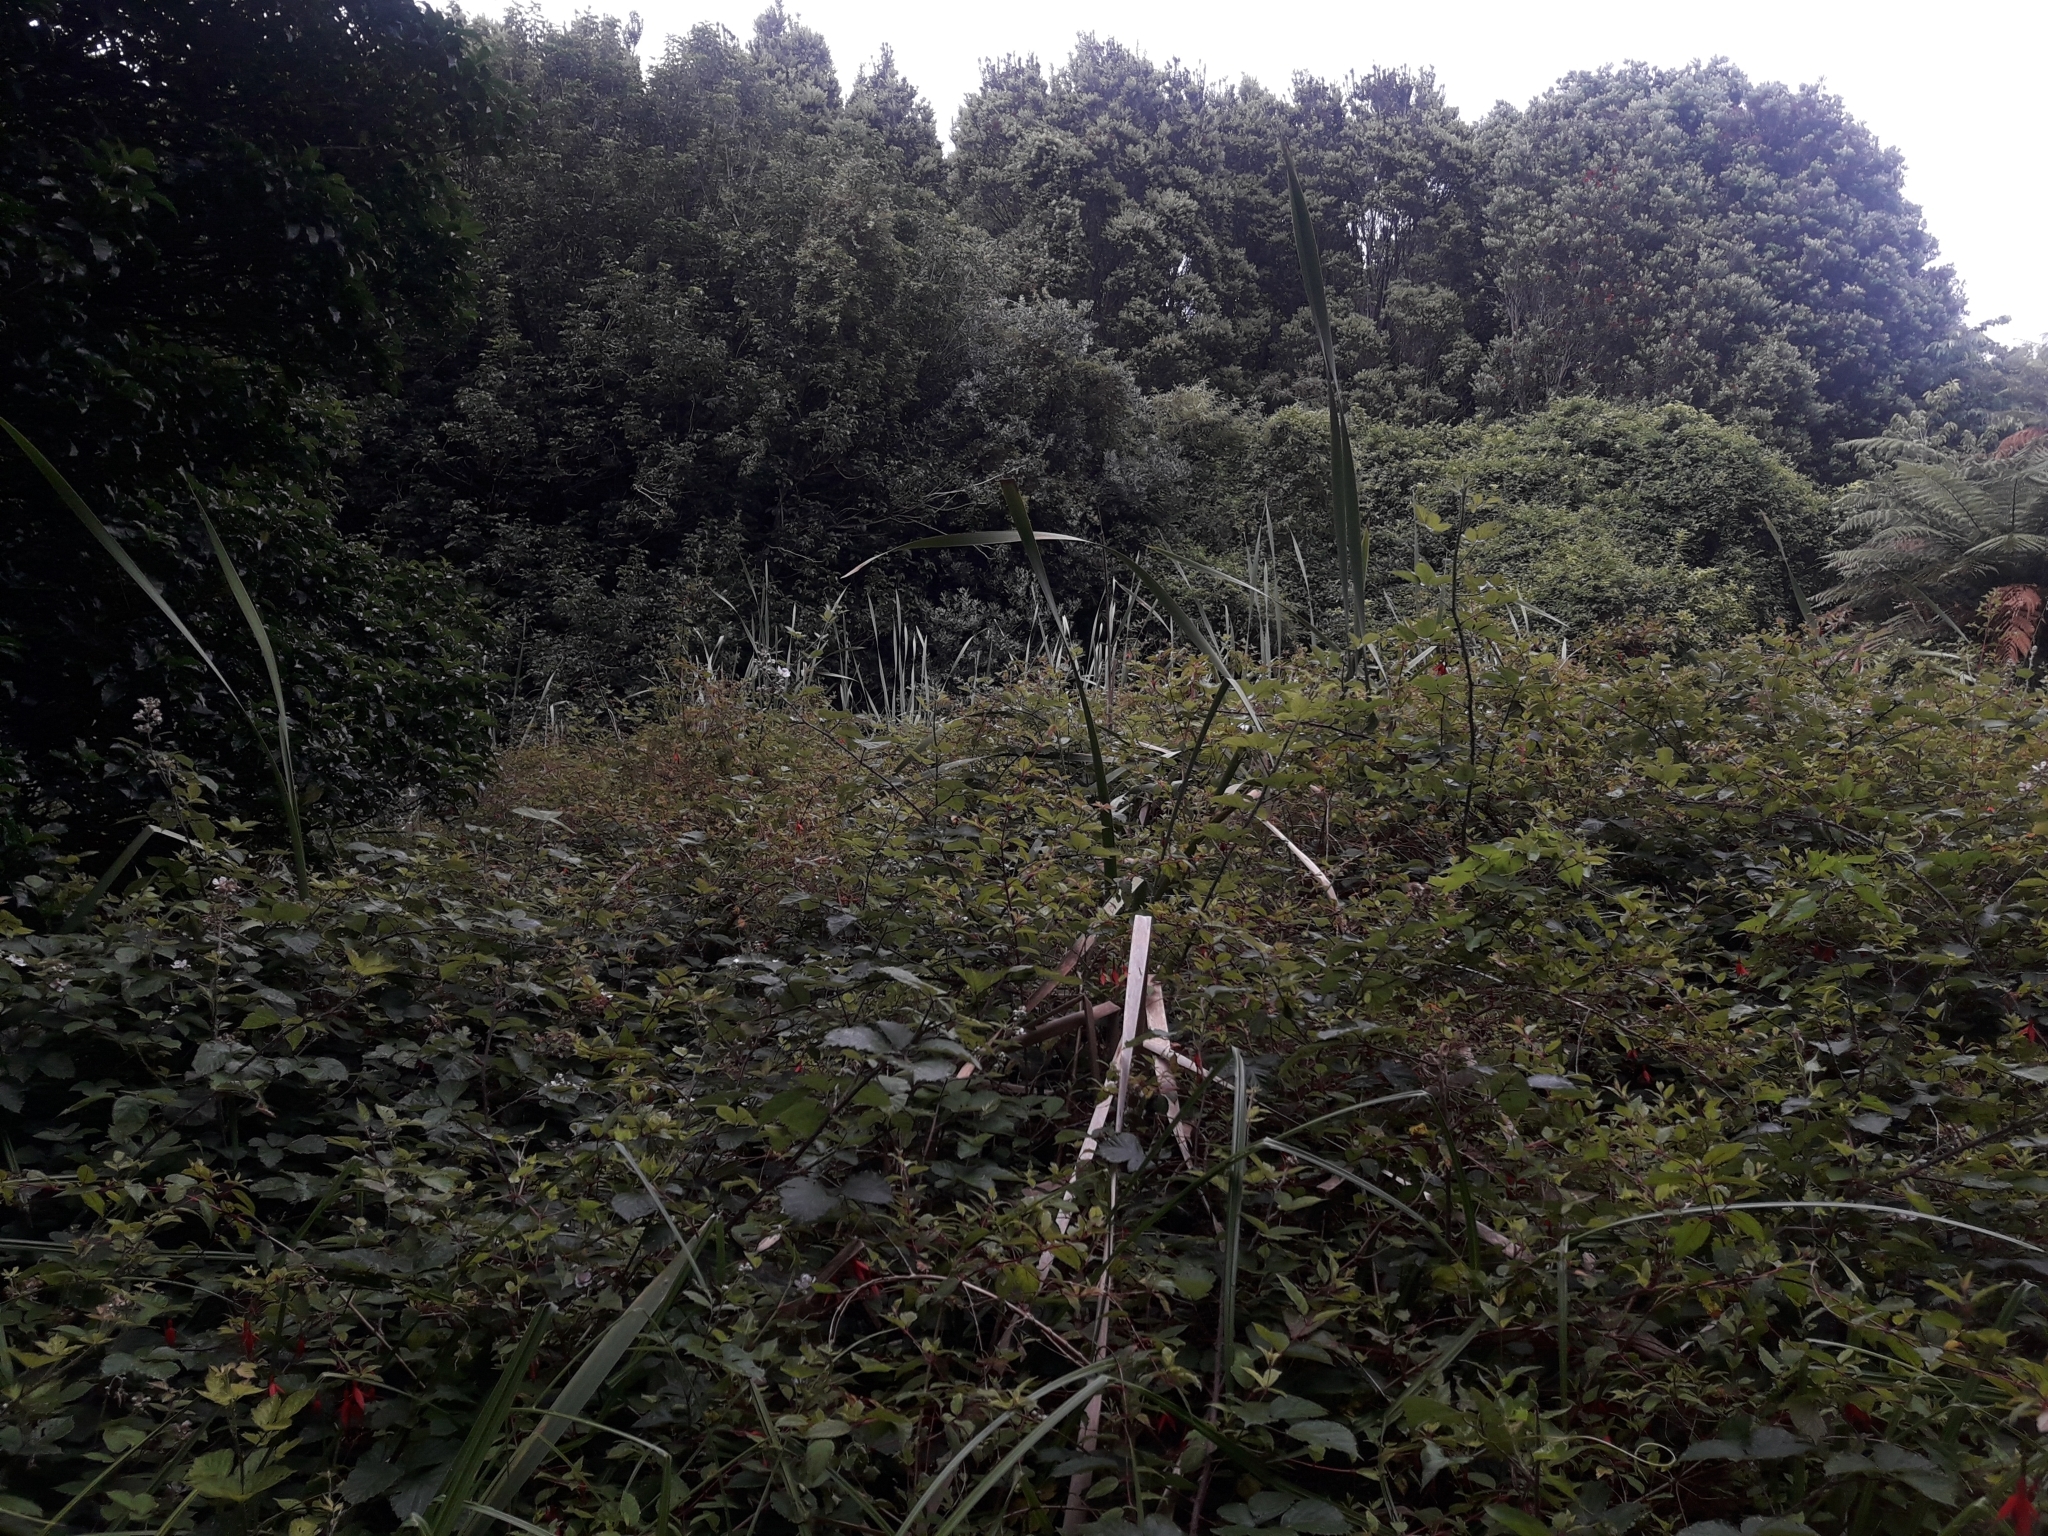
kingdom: Plantae
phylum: Tracheophyta
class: Magnoliopsida
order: Myrtales
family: Onagraceae
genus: Fuchsia
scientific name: Fuchsia magellanica
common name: Hardy fuchsia
